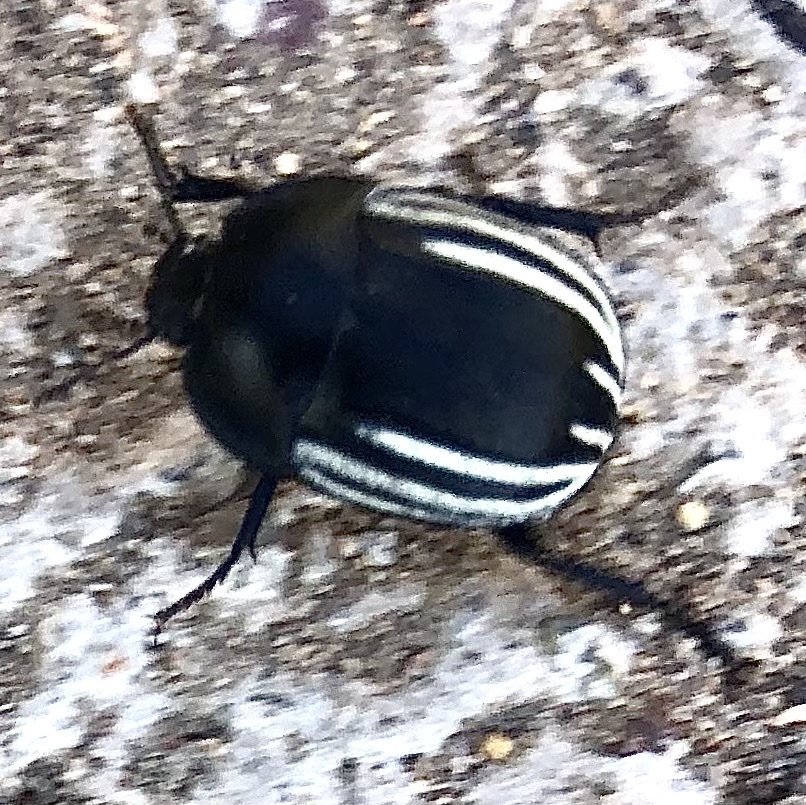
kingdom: Animalia
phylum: Arthropoda
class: Insecta
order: Coleoptera
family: Tenebrionidae
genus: Praocis
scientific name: Praocis spinolai
